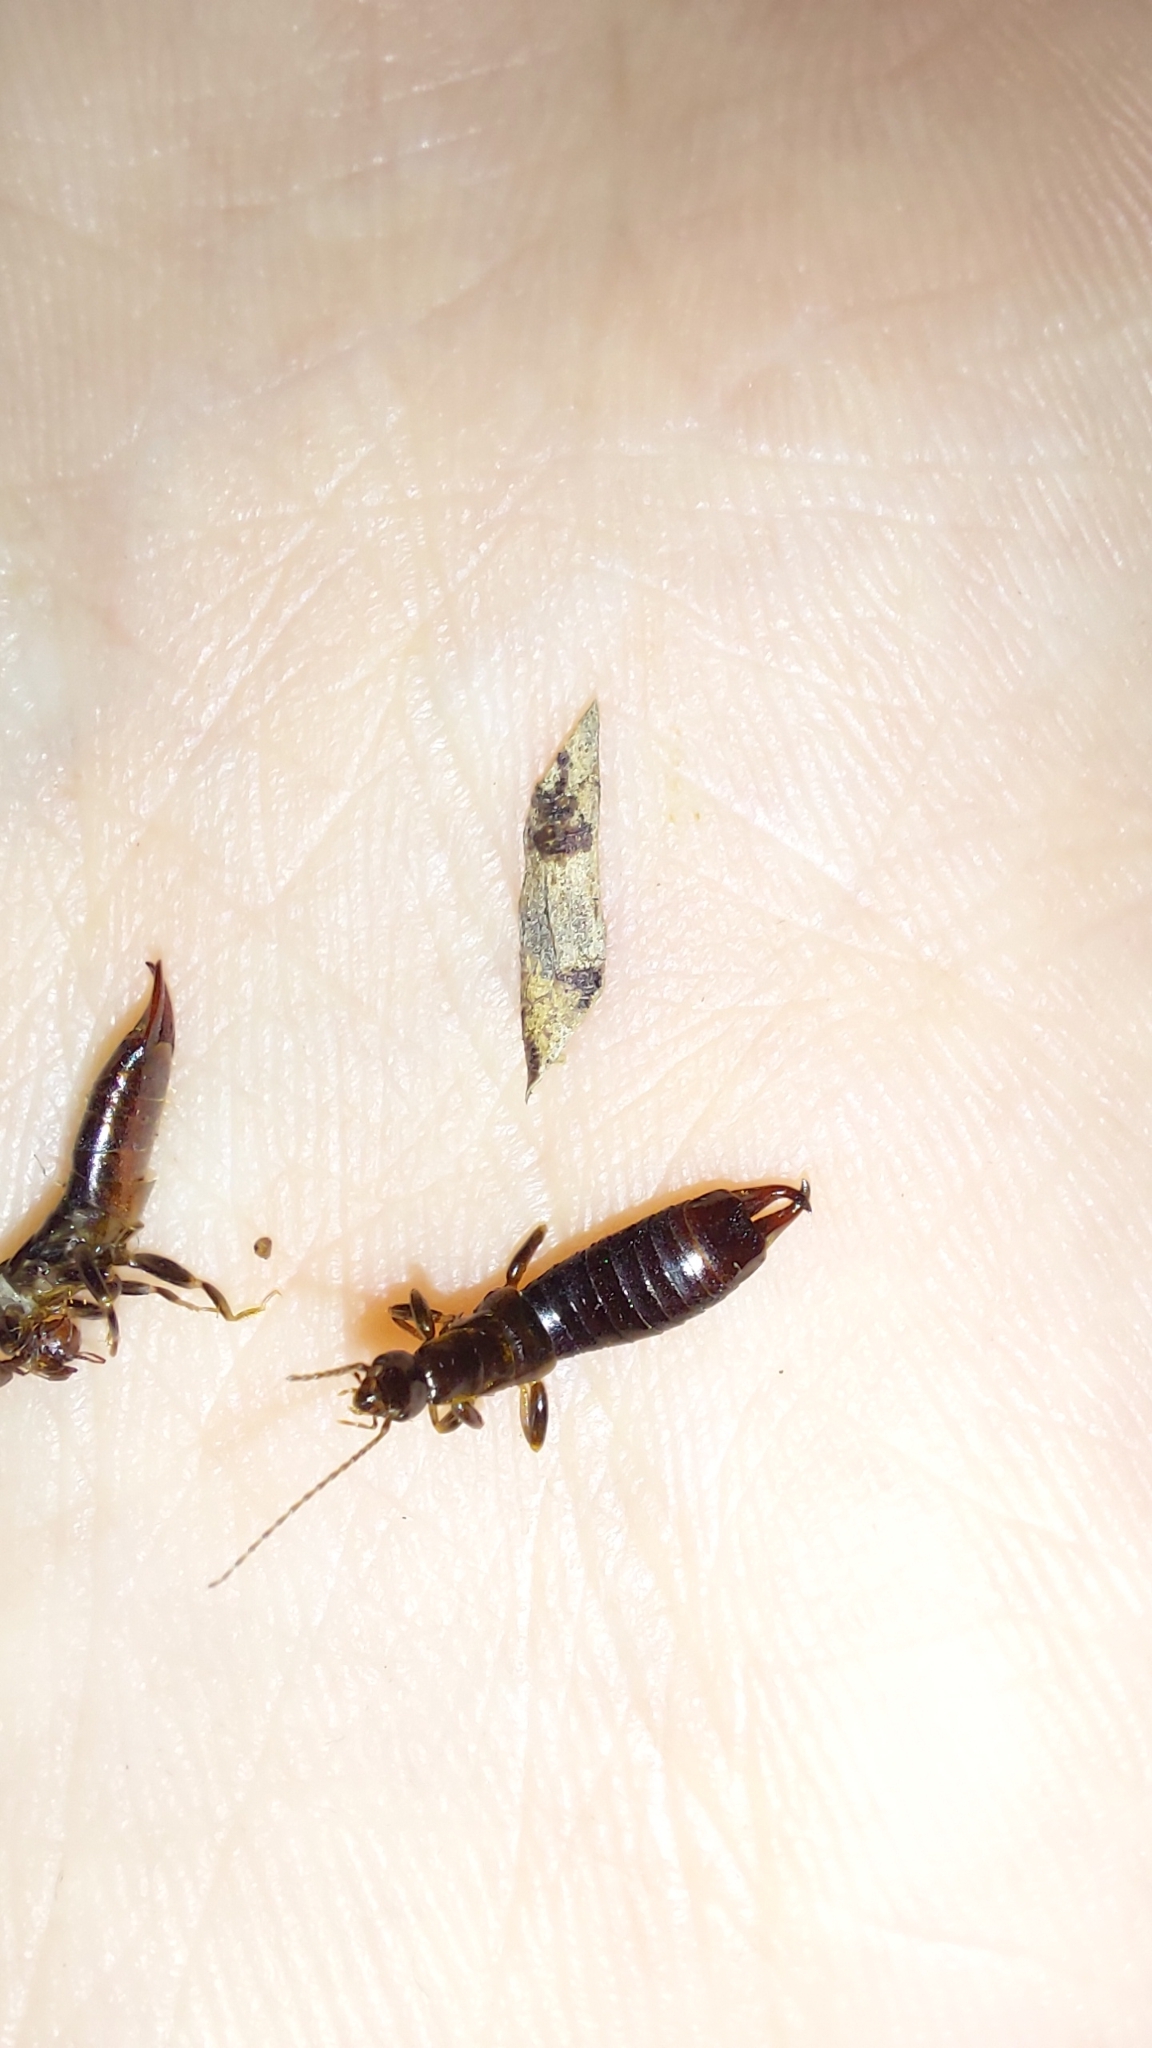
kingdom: Animalia
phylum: Arthropoda
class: Insecta
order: Dermaptera
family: Anisolabididae
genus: Euborellia
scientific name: Euborellia moesta
